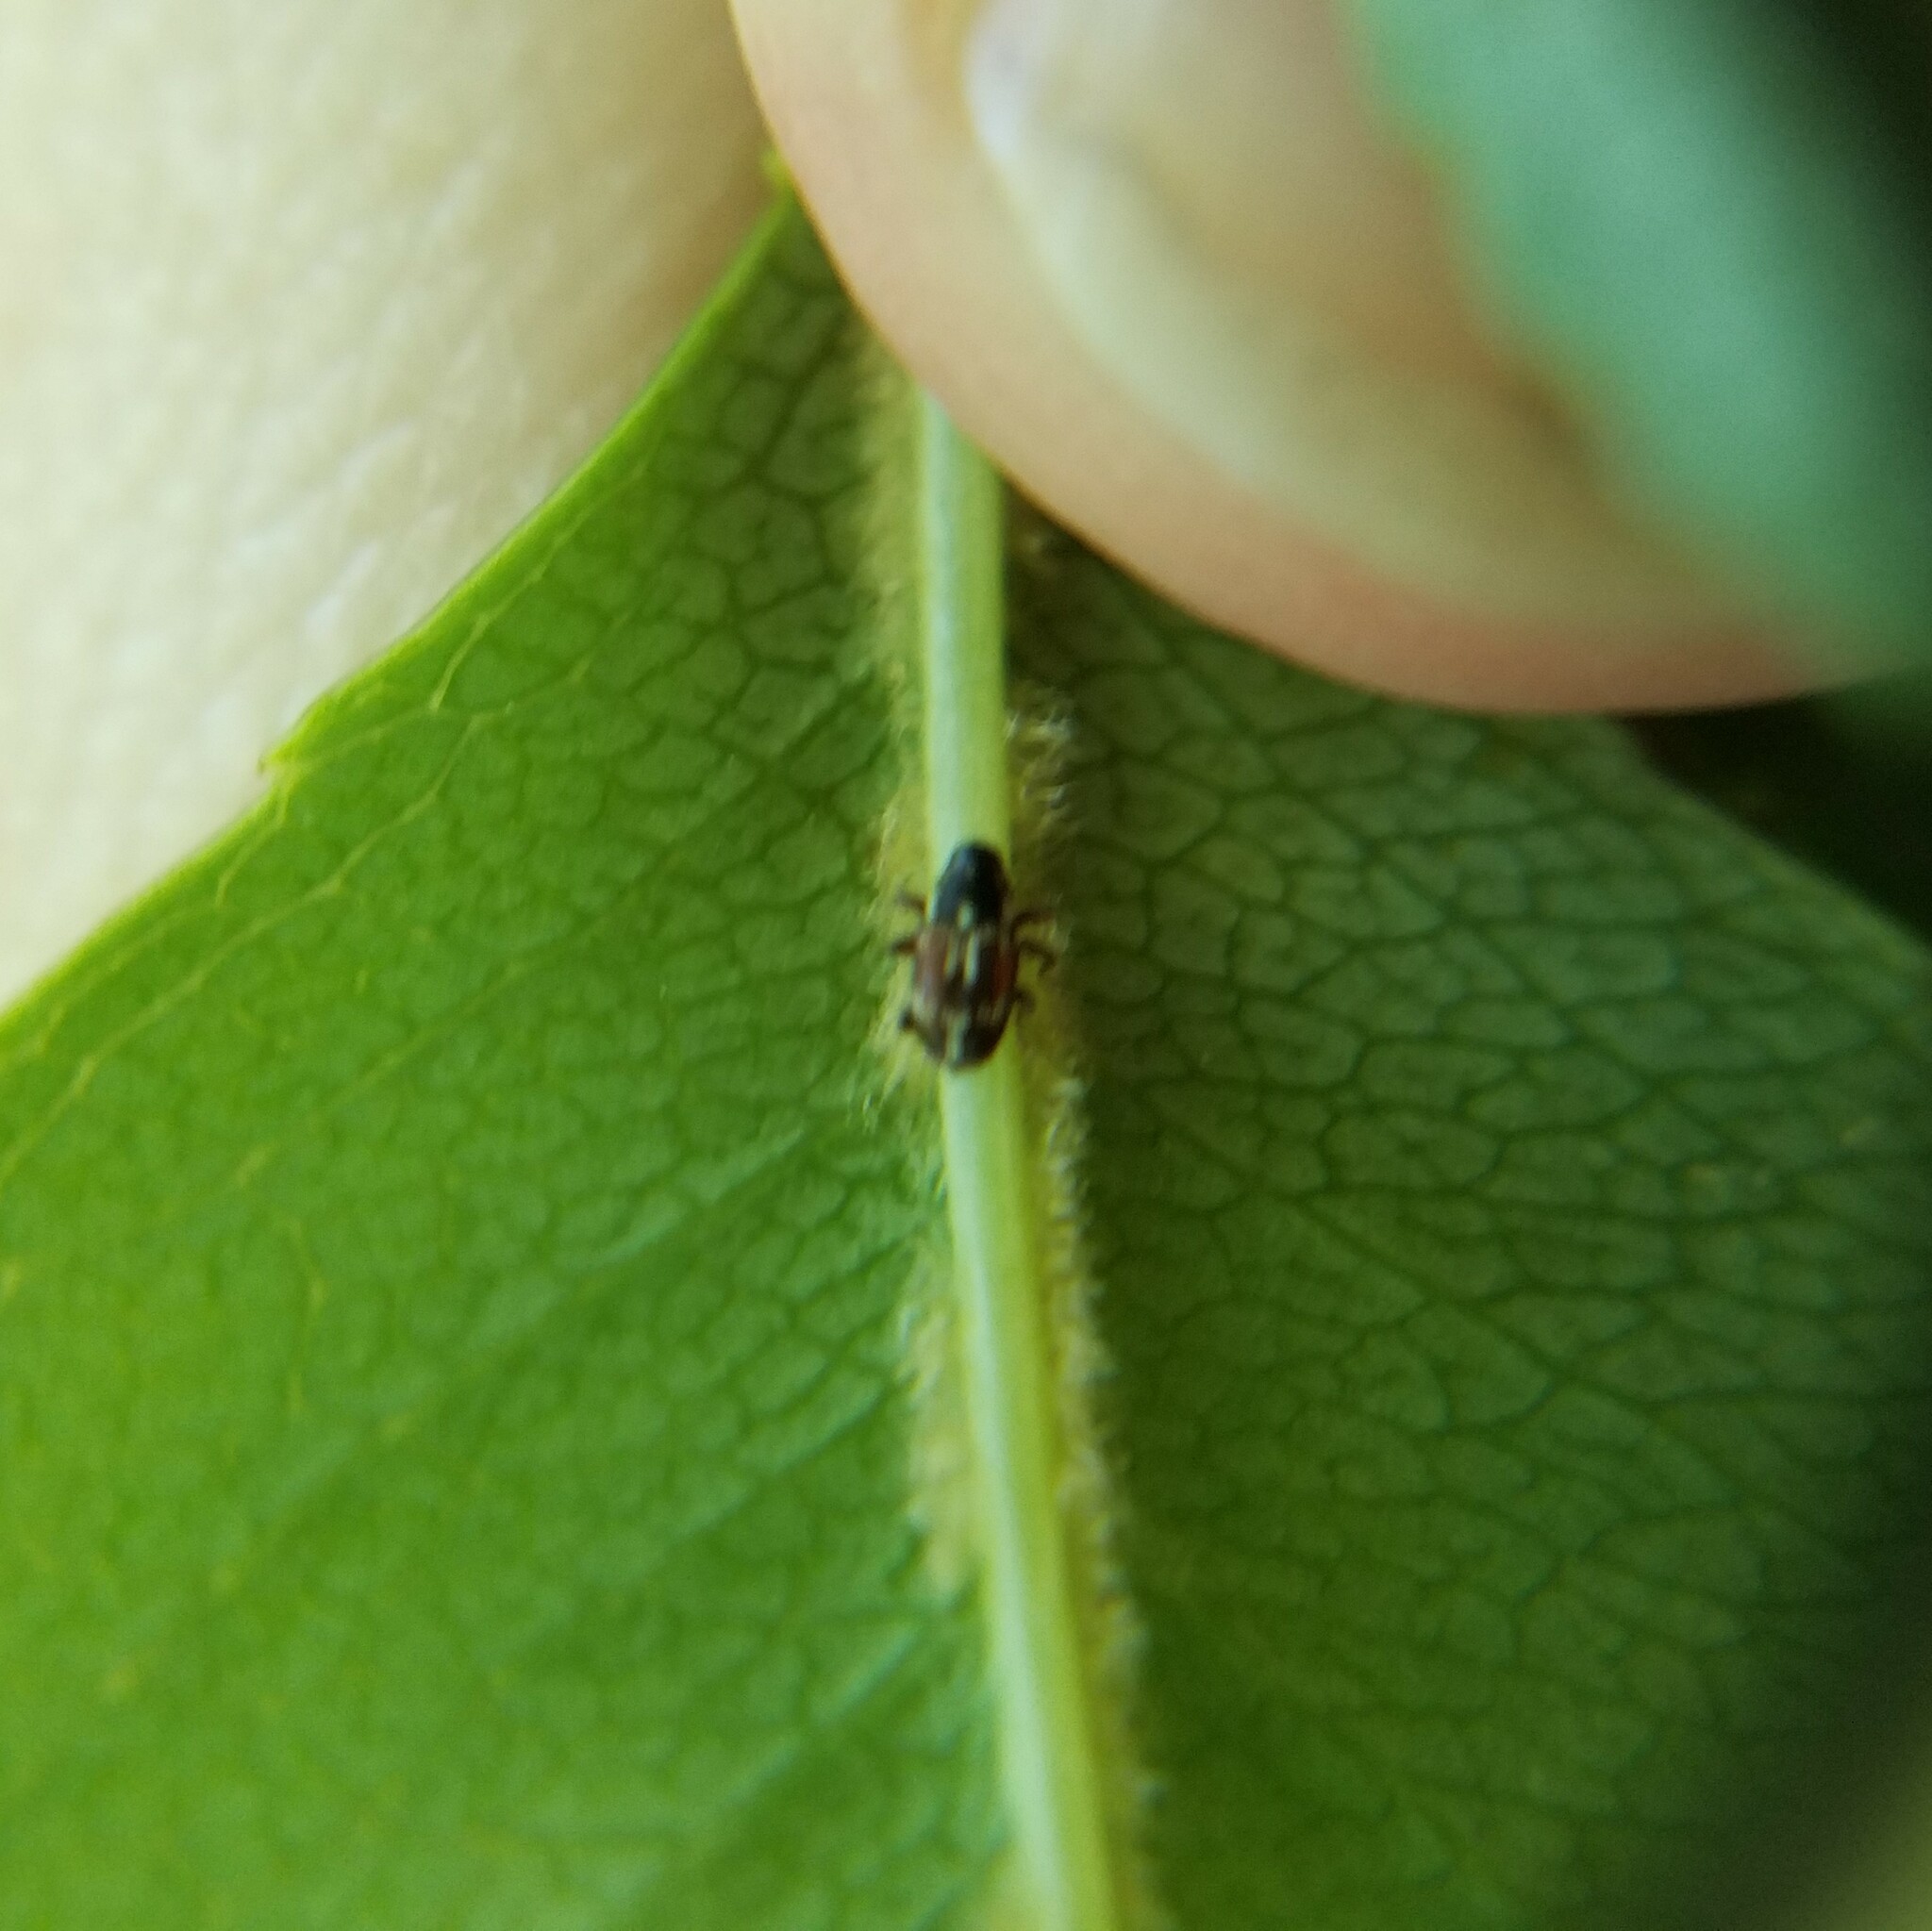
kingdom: Animalia
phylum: Arthropoda
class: Insecta
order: Coleoptera
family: Curculionidae
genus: Eulechriops
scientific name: Eulechriops minutus
